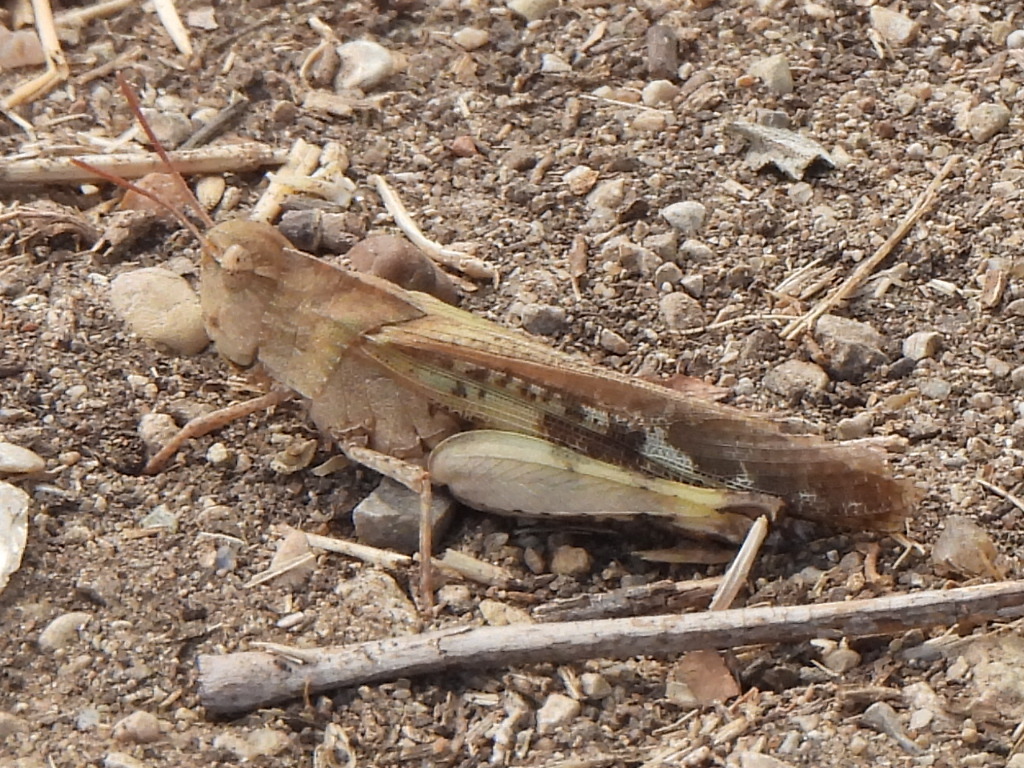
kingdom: Animalia
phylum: Arthropoda
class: Insecta
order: Orthoptera
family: Acrididae
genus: Chortophaga
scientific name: Chortophaga viridifasciata
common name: Green-striped grasshopper
